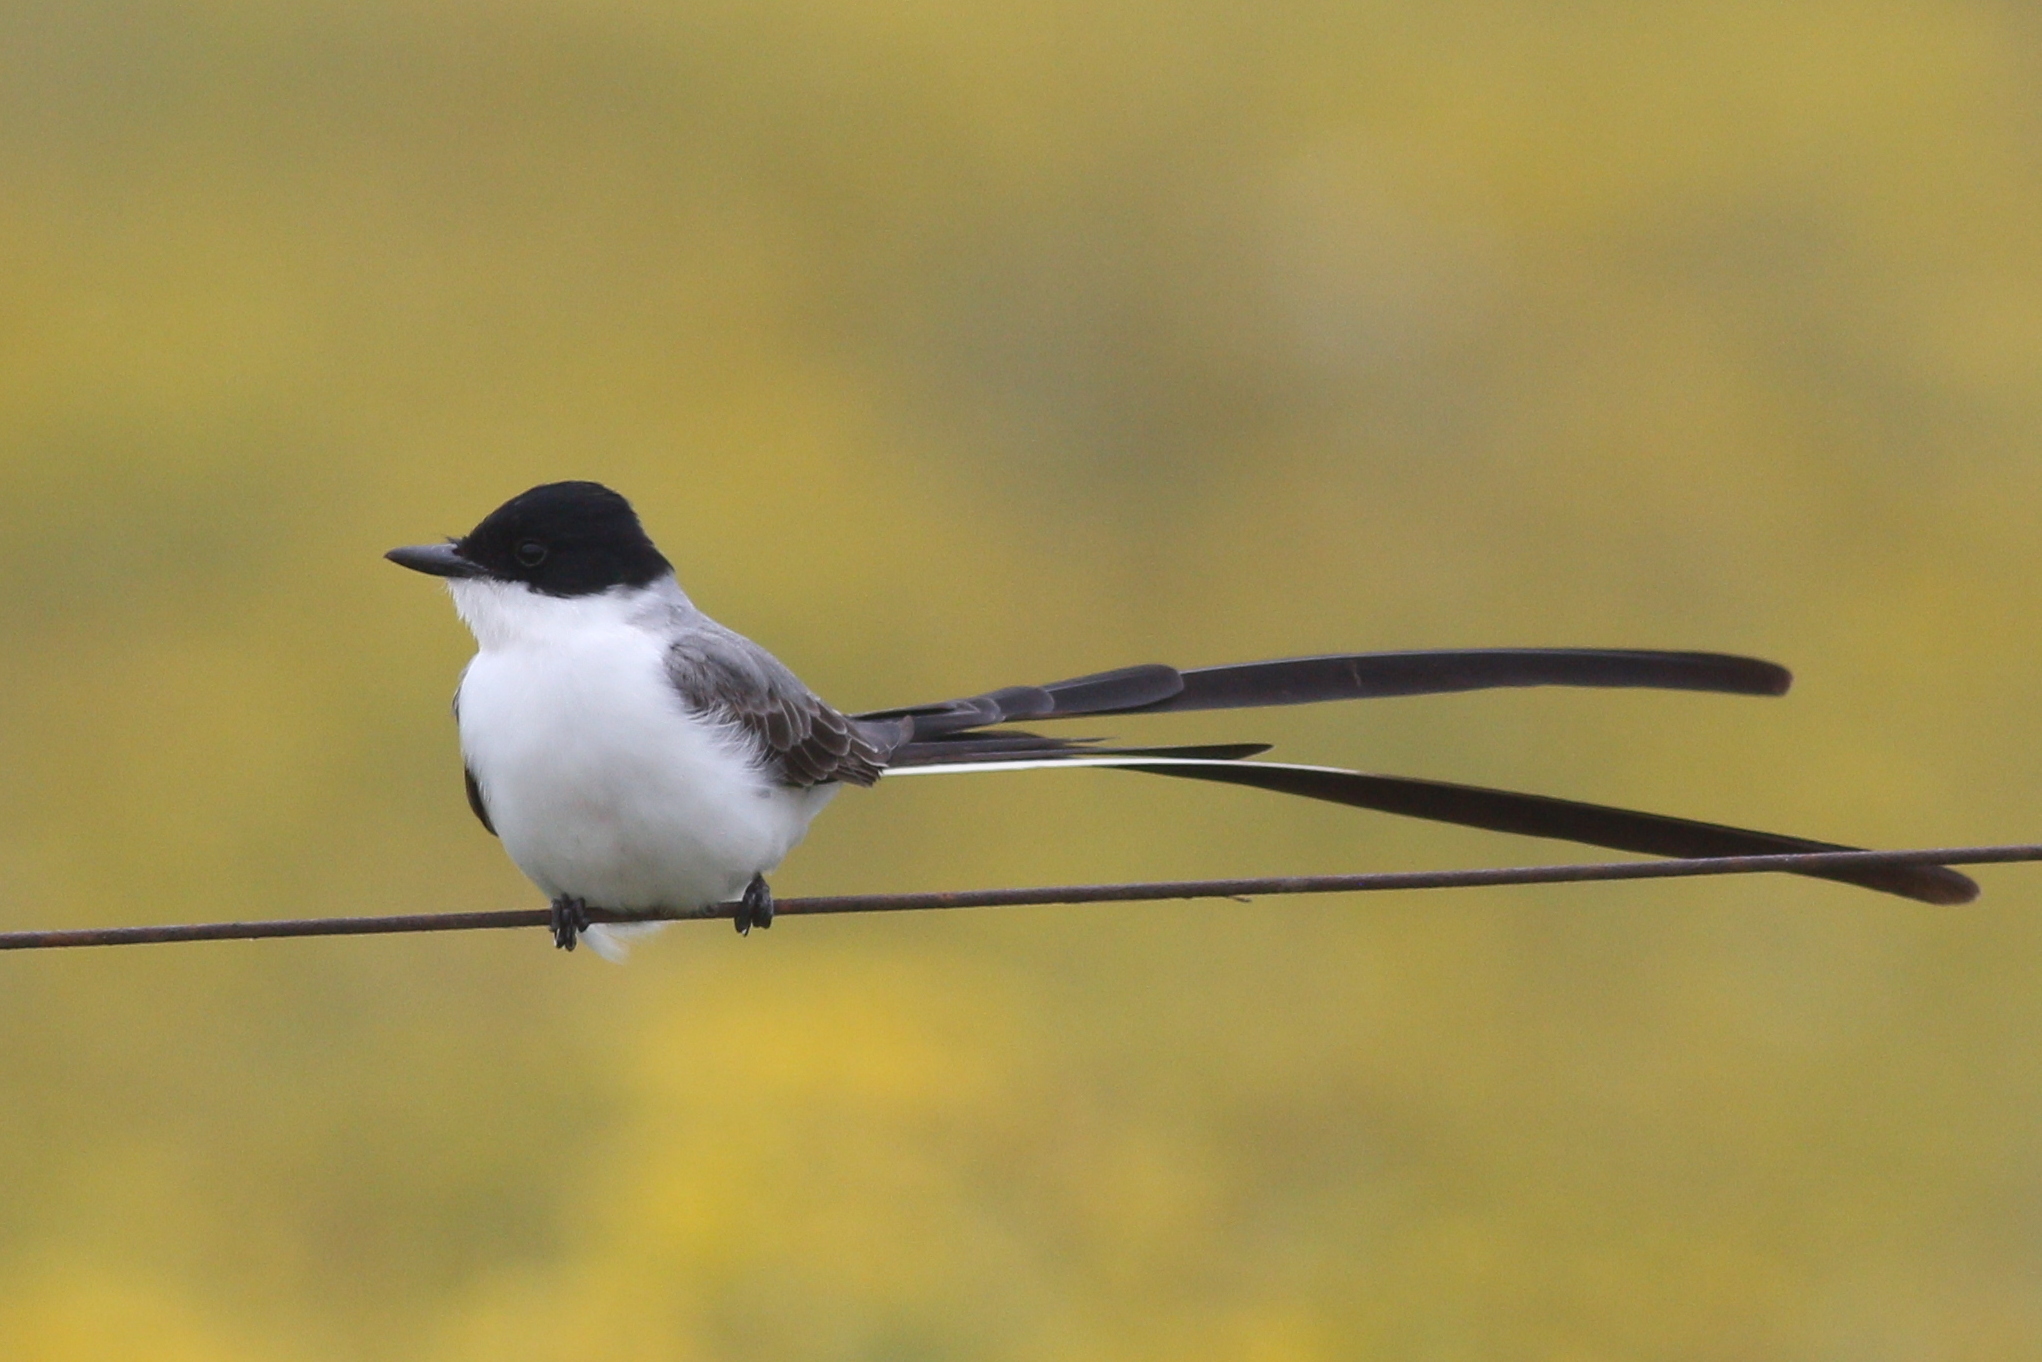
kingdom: Animalia
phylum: Chordata
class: Aves
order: Passeriformes
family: Tyrannidae
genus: Tyrannus
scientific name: Tyrannus savana
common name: Fork-tailed flycatcher
